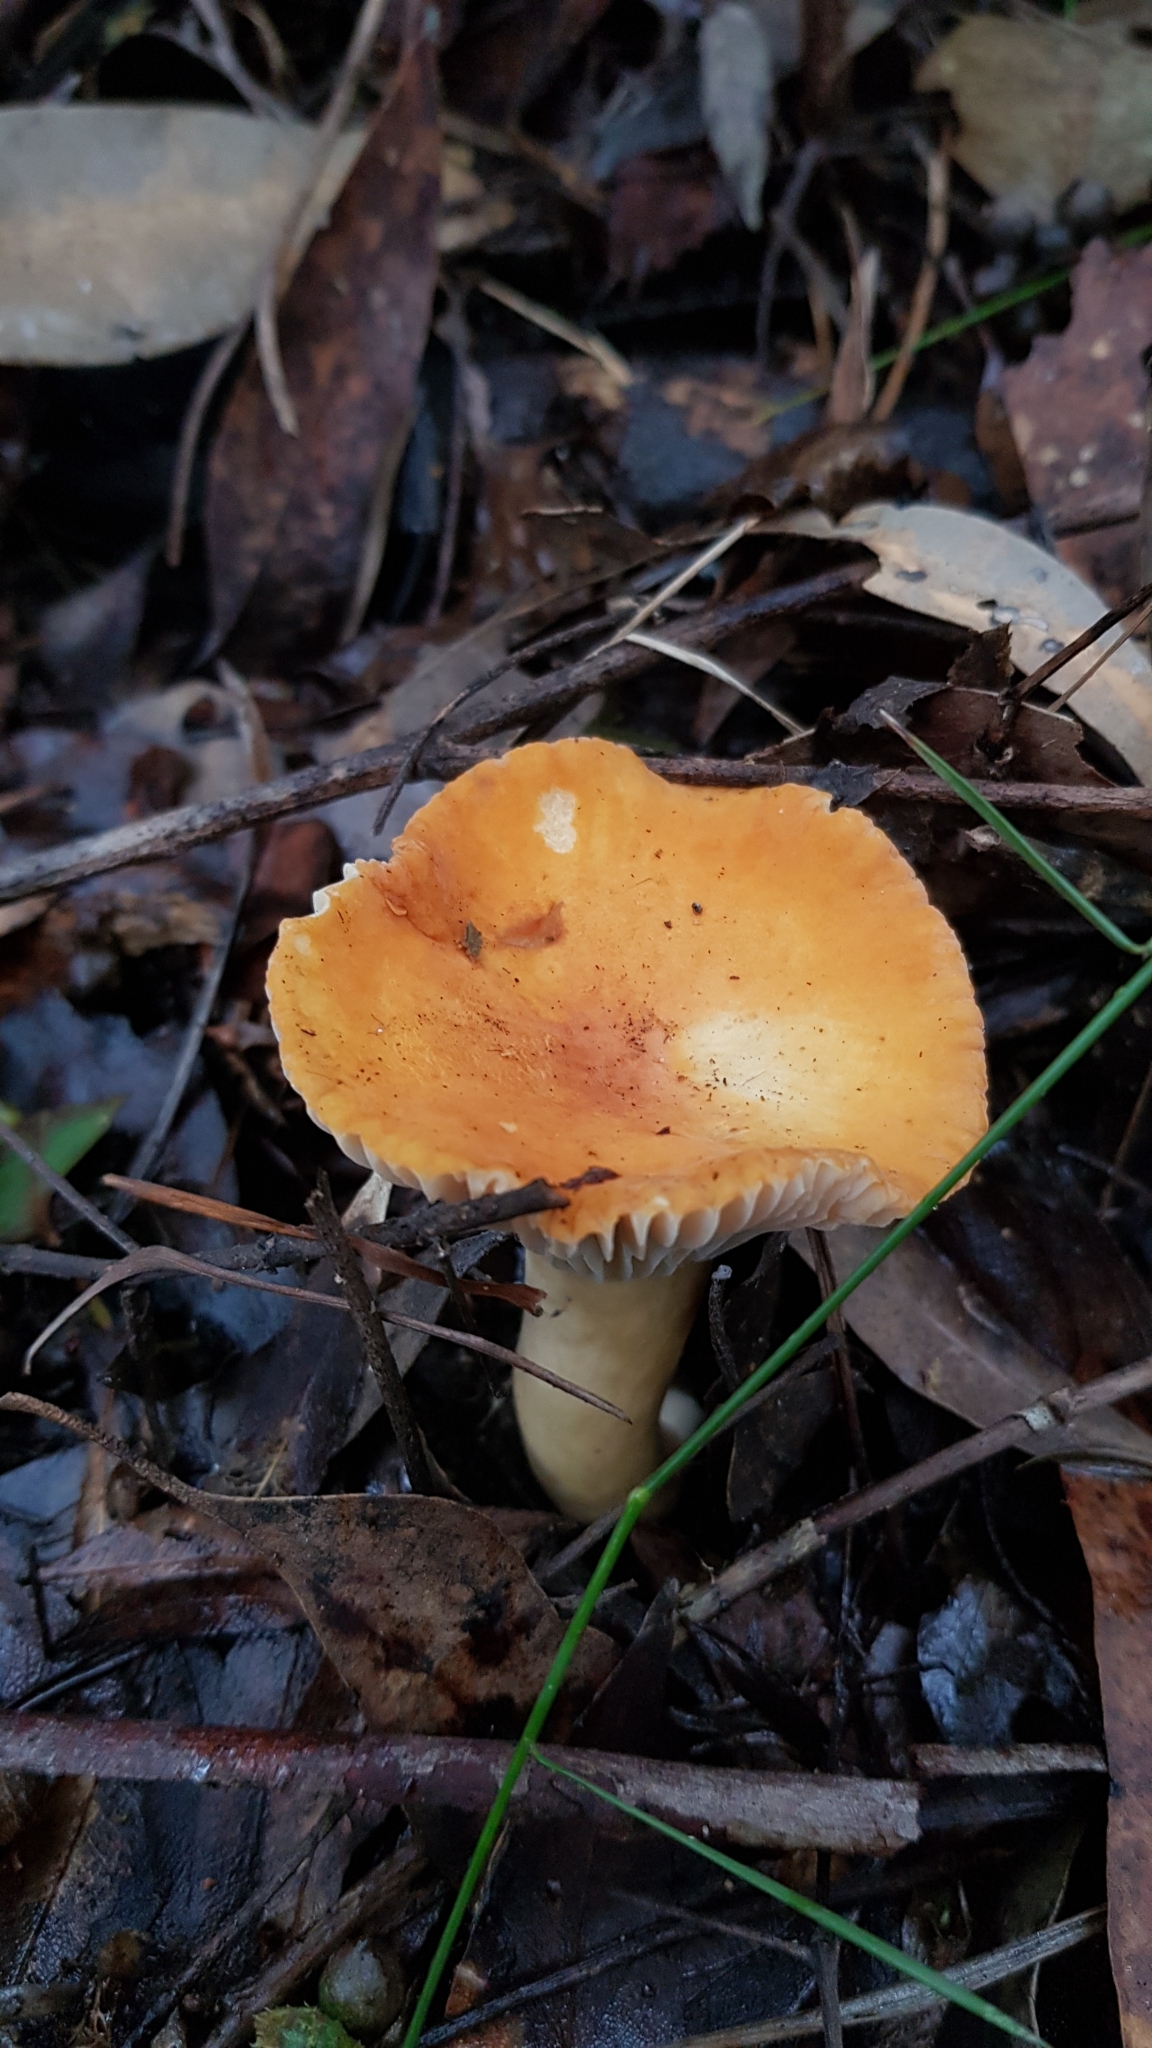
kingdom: Fungi
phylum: Basidiomycota
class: Agaricomycetes
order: Russulales
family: Russulaceae
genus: Lactifluus
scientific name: Lactifluus flocktoniae
